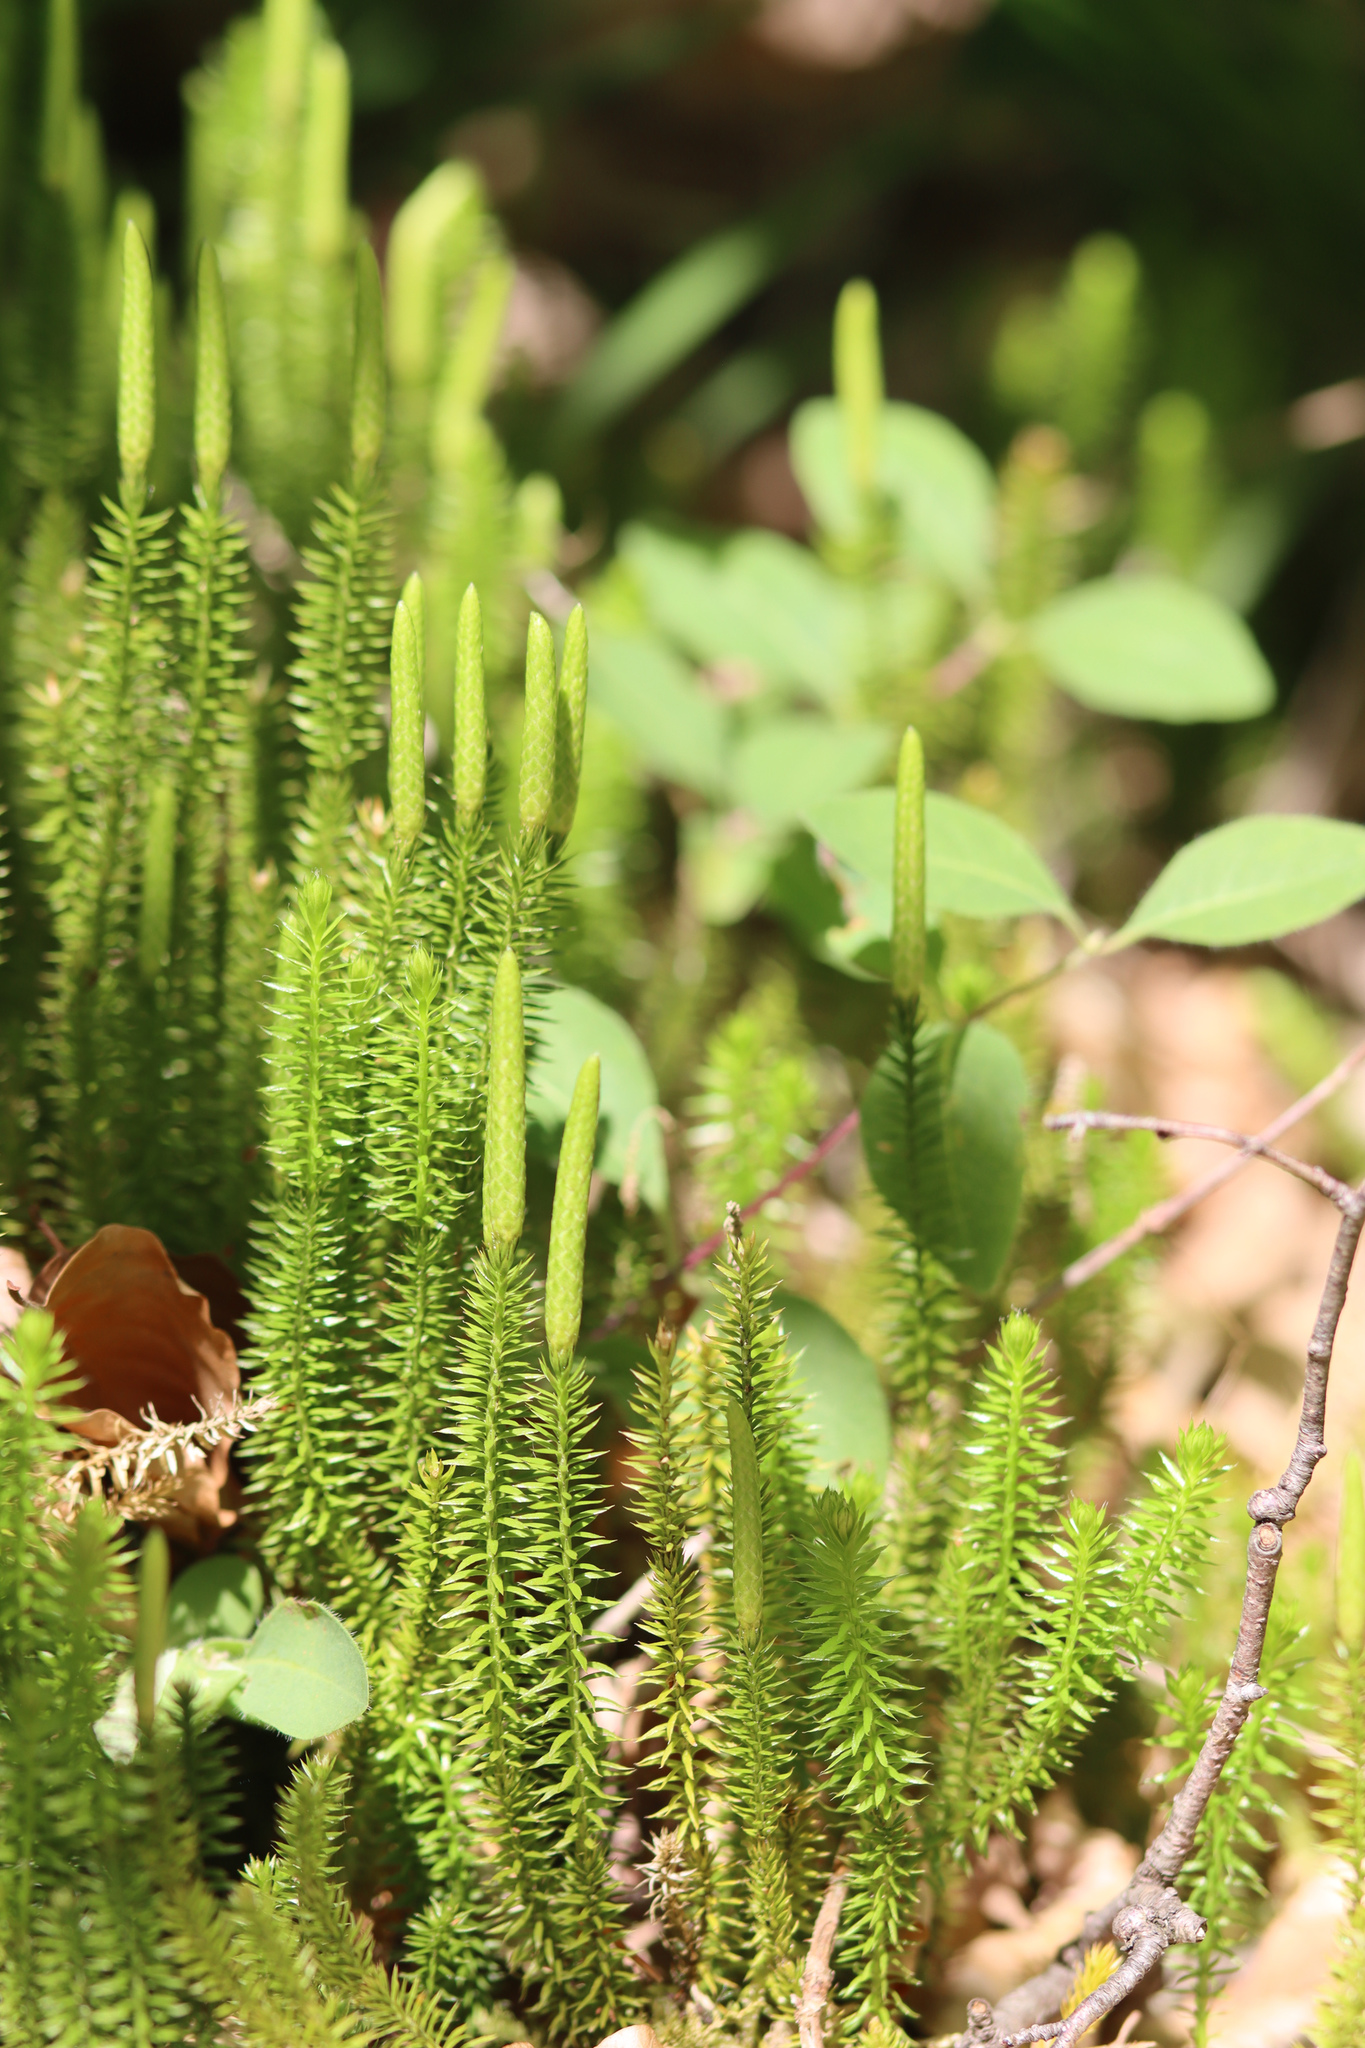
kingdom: Plantae
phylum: Tracheophyta
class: Lycopodiopsida
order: Lycopodiales
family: Lycopodiaceae
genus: Spinulum
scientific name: Spinulum annotinum
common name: Interrupted club-moss
